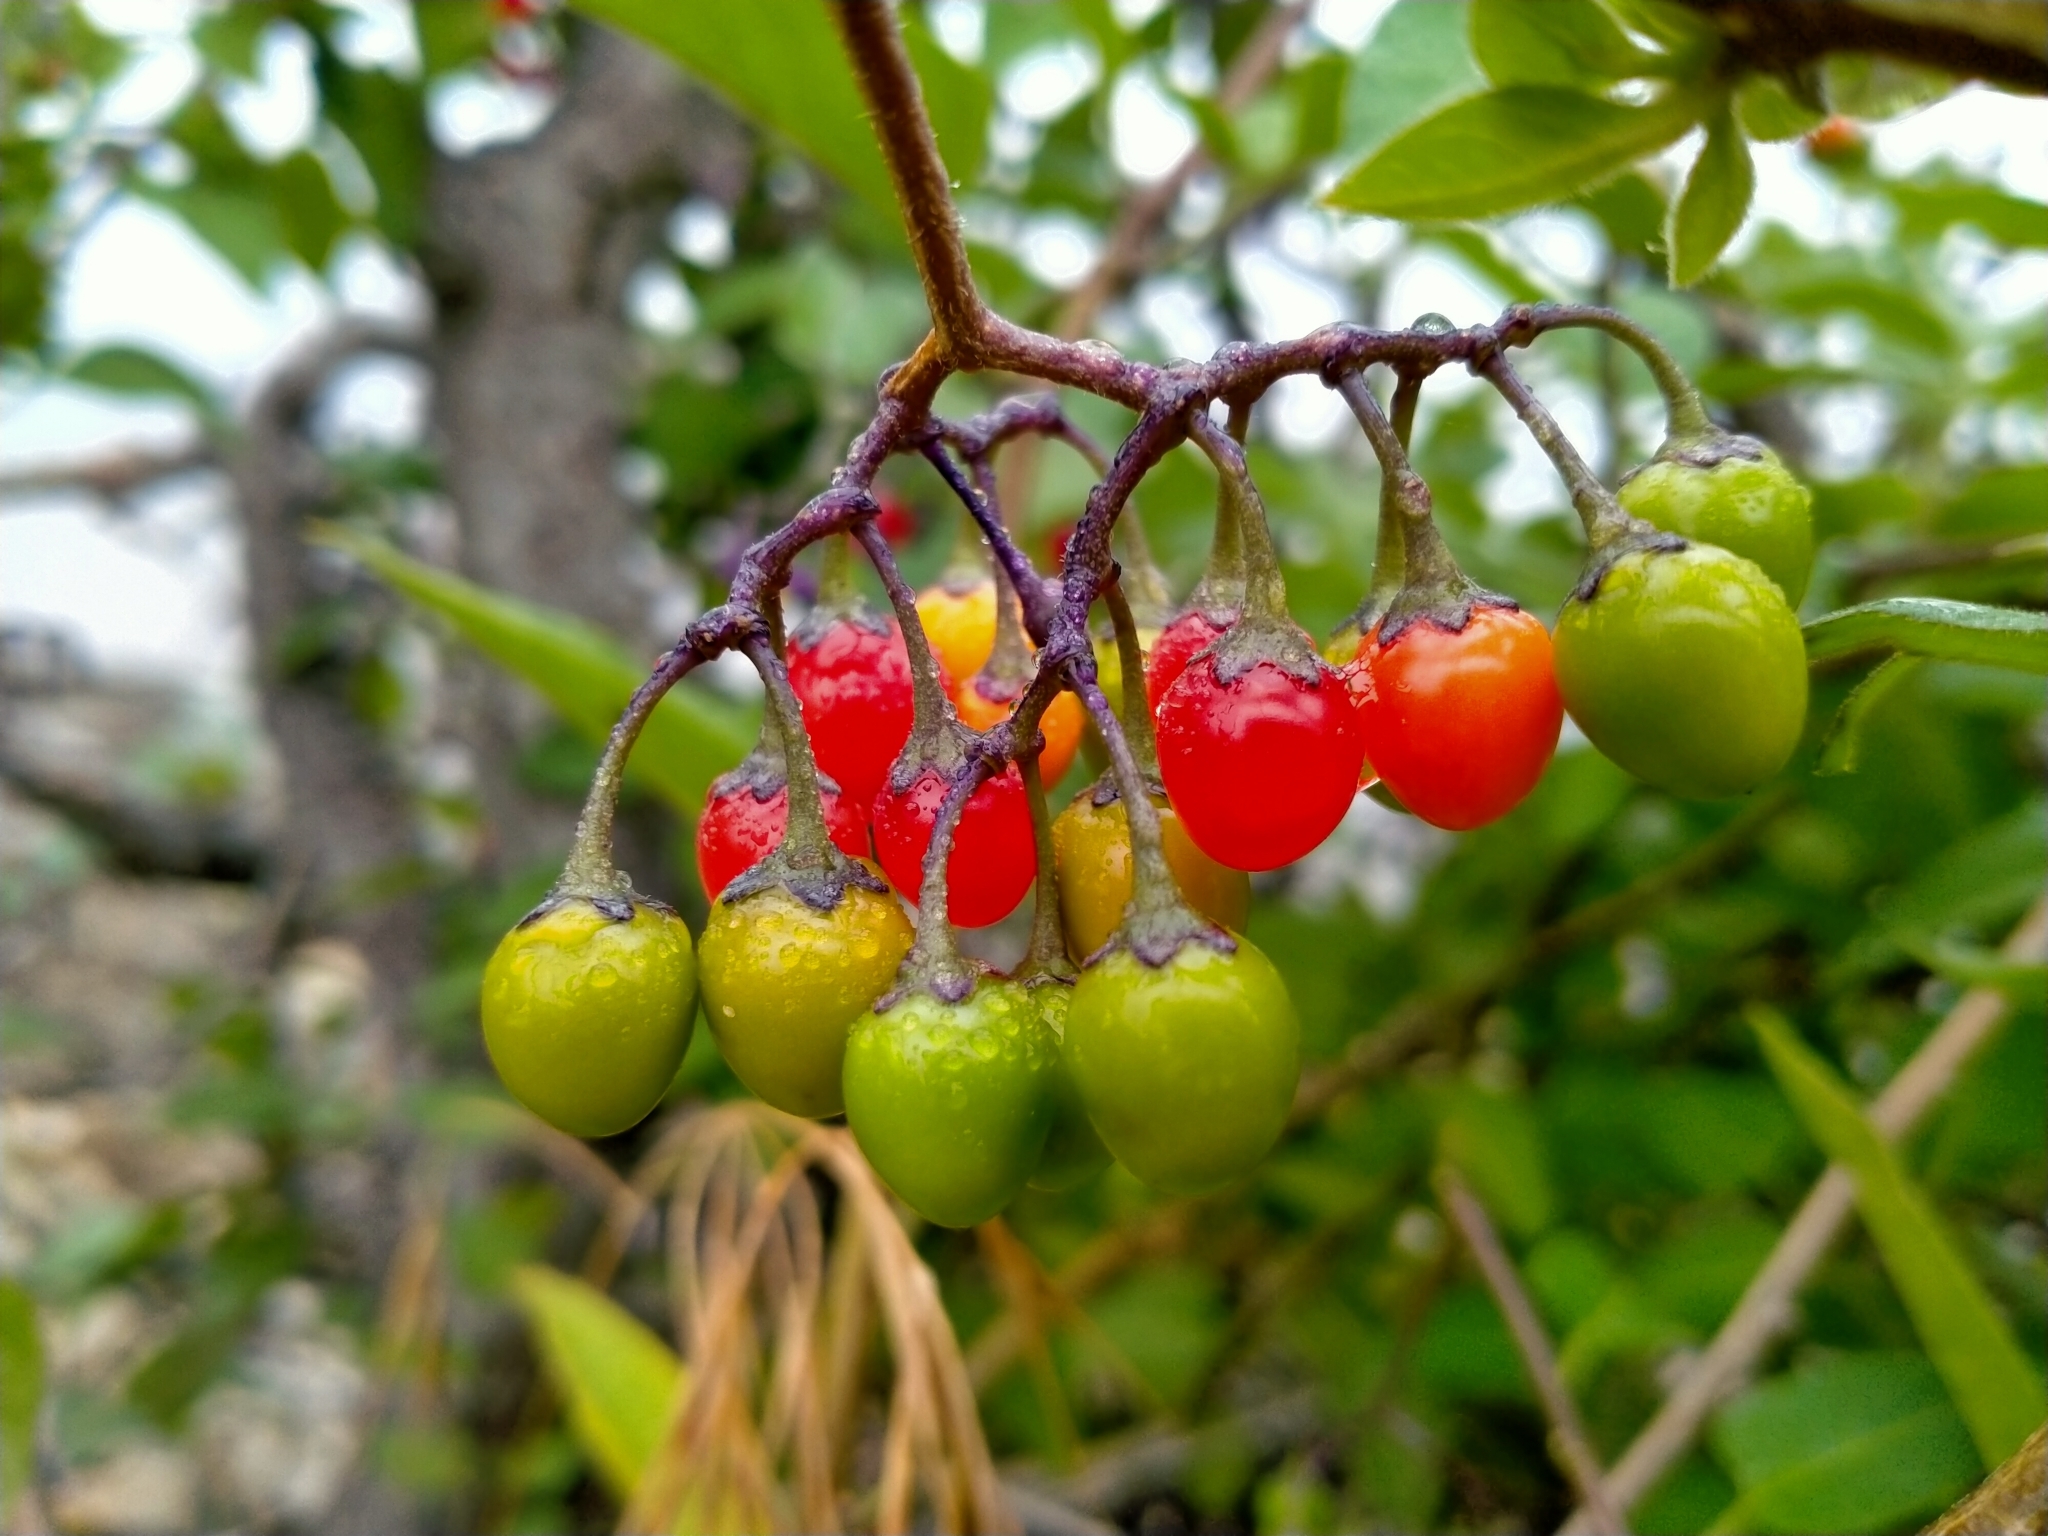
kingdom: Plantae
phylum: Tracheophyta
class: Magnoliopsida
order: Solanales
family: Solanaceae
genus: Solanum
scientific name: Solanum dulcamara
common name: Climbing nightshade
